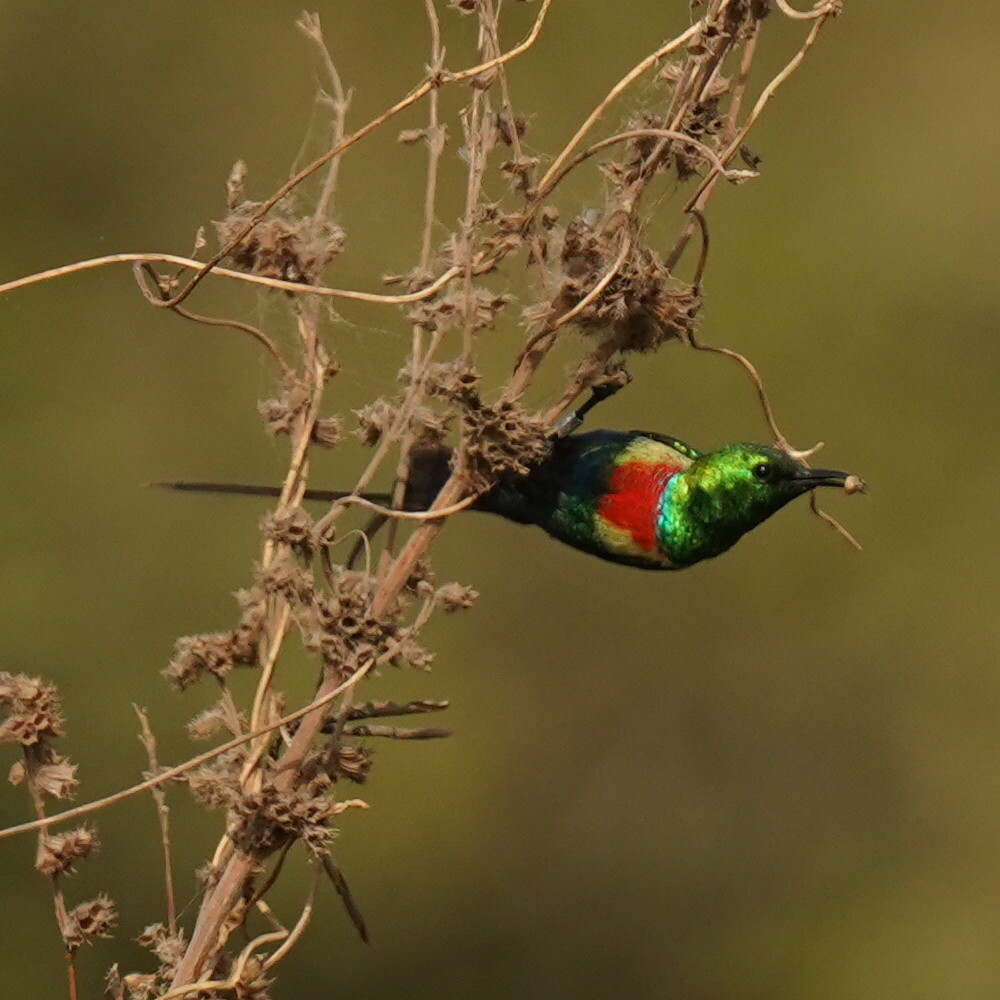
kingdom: Animalia
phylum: Chordata
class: Aves
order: Passeriformes
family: Nectariniidae
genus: Cinnyris
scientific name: Cinnyris pulchellus
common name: Beautiful sunbird
